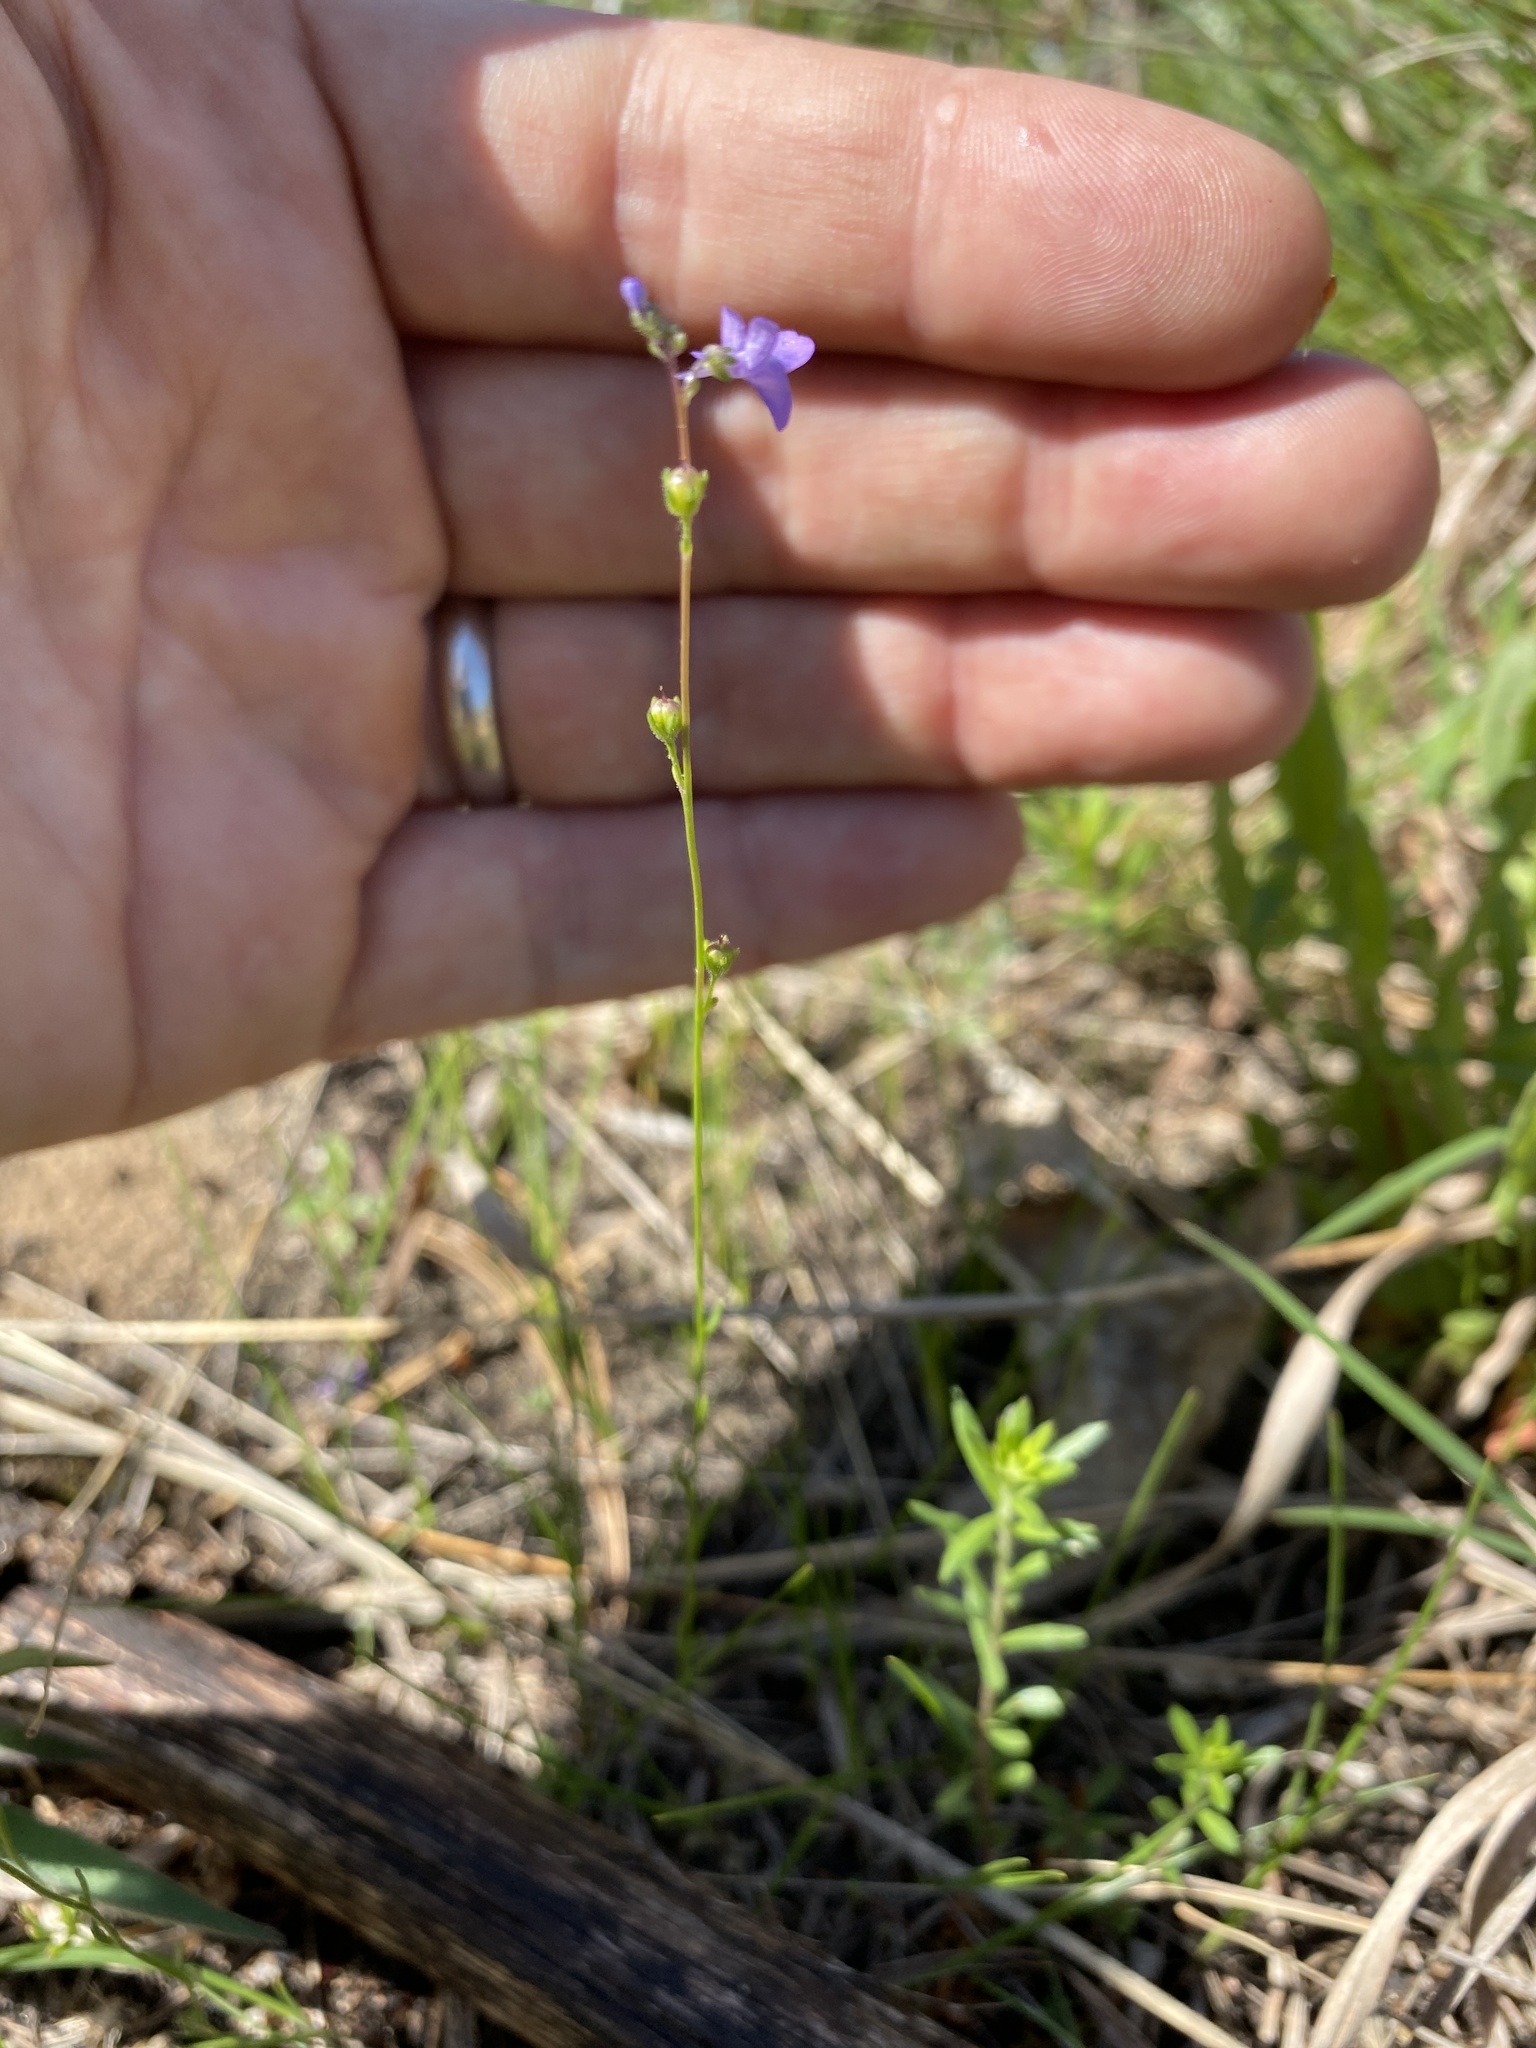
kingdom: Plantae
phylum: Tracheophyta
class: Magnoliopsida
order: Lamiales
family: Plantaginaceae
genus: Nuttallanthus
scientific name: Nuttallanthus canadensis
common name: Blue toadflax
